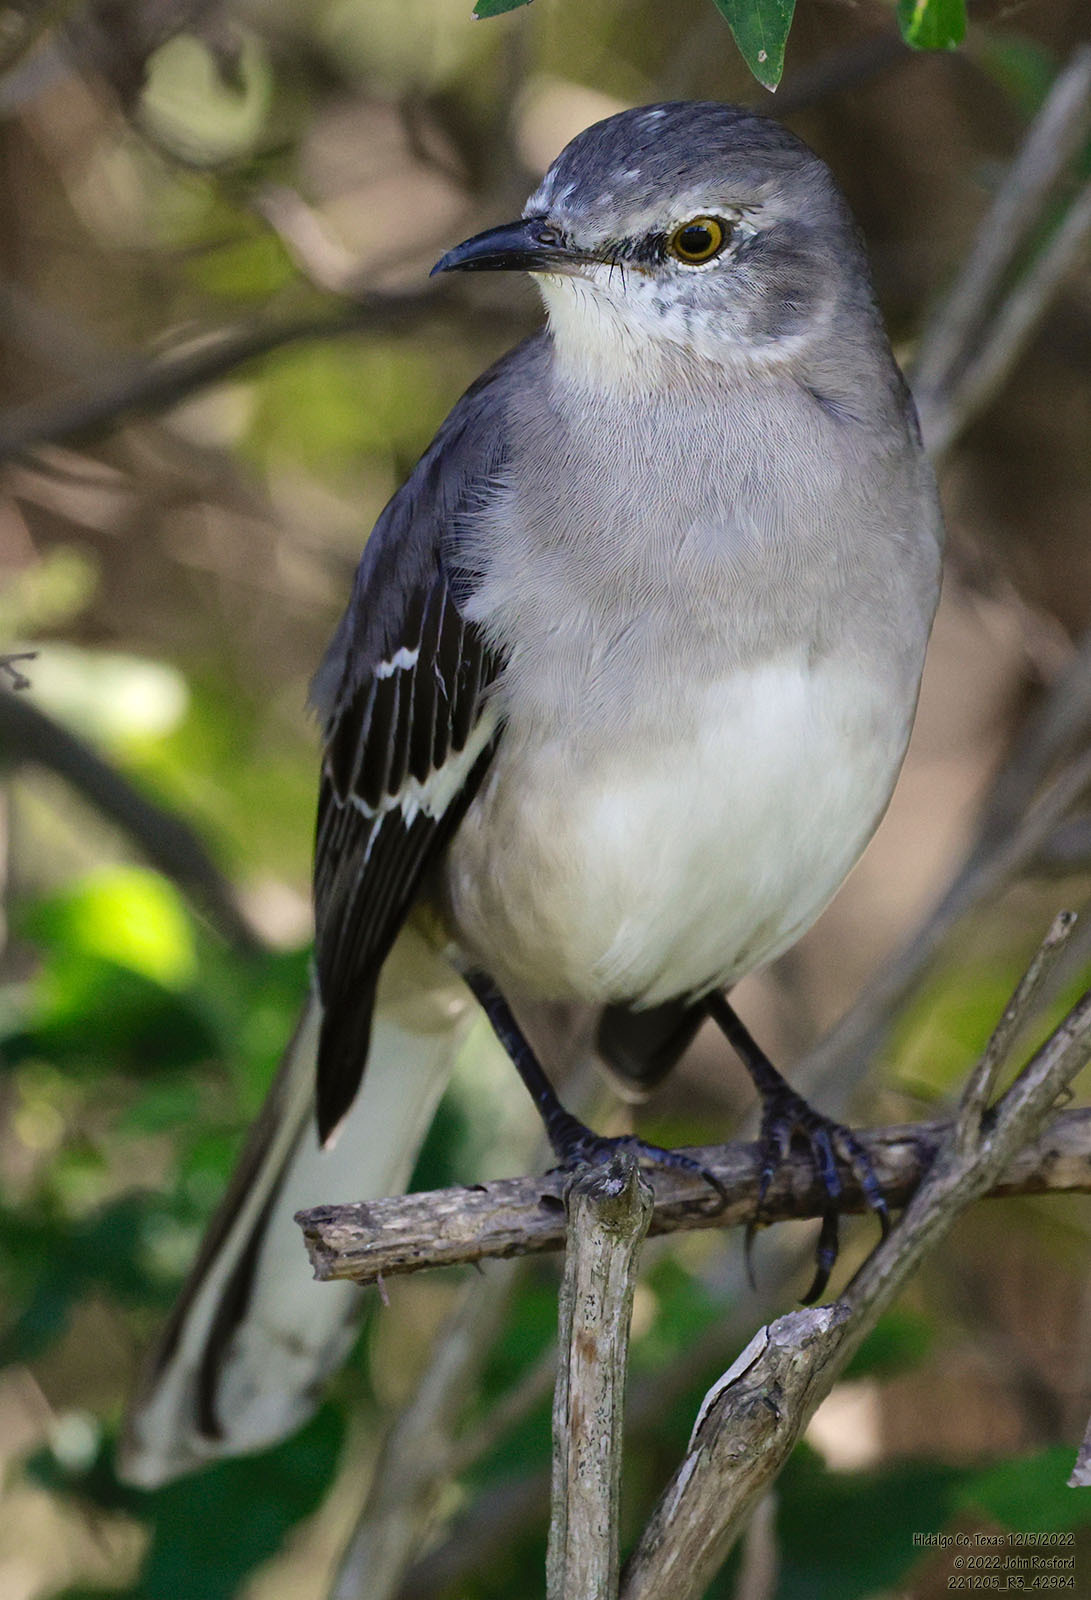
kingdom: Animalia
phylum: Chordata
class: Aves
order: Passeriformes
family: Mimidae
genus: Mimus
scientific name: Mimus polyglottos
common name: Northern mockingbird
